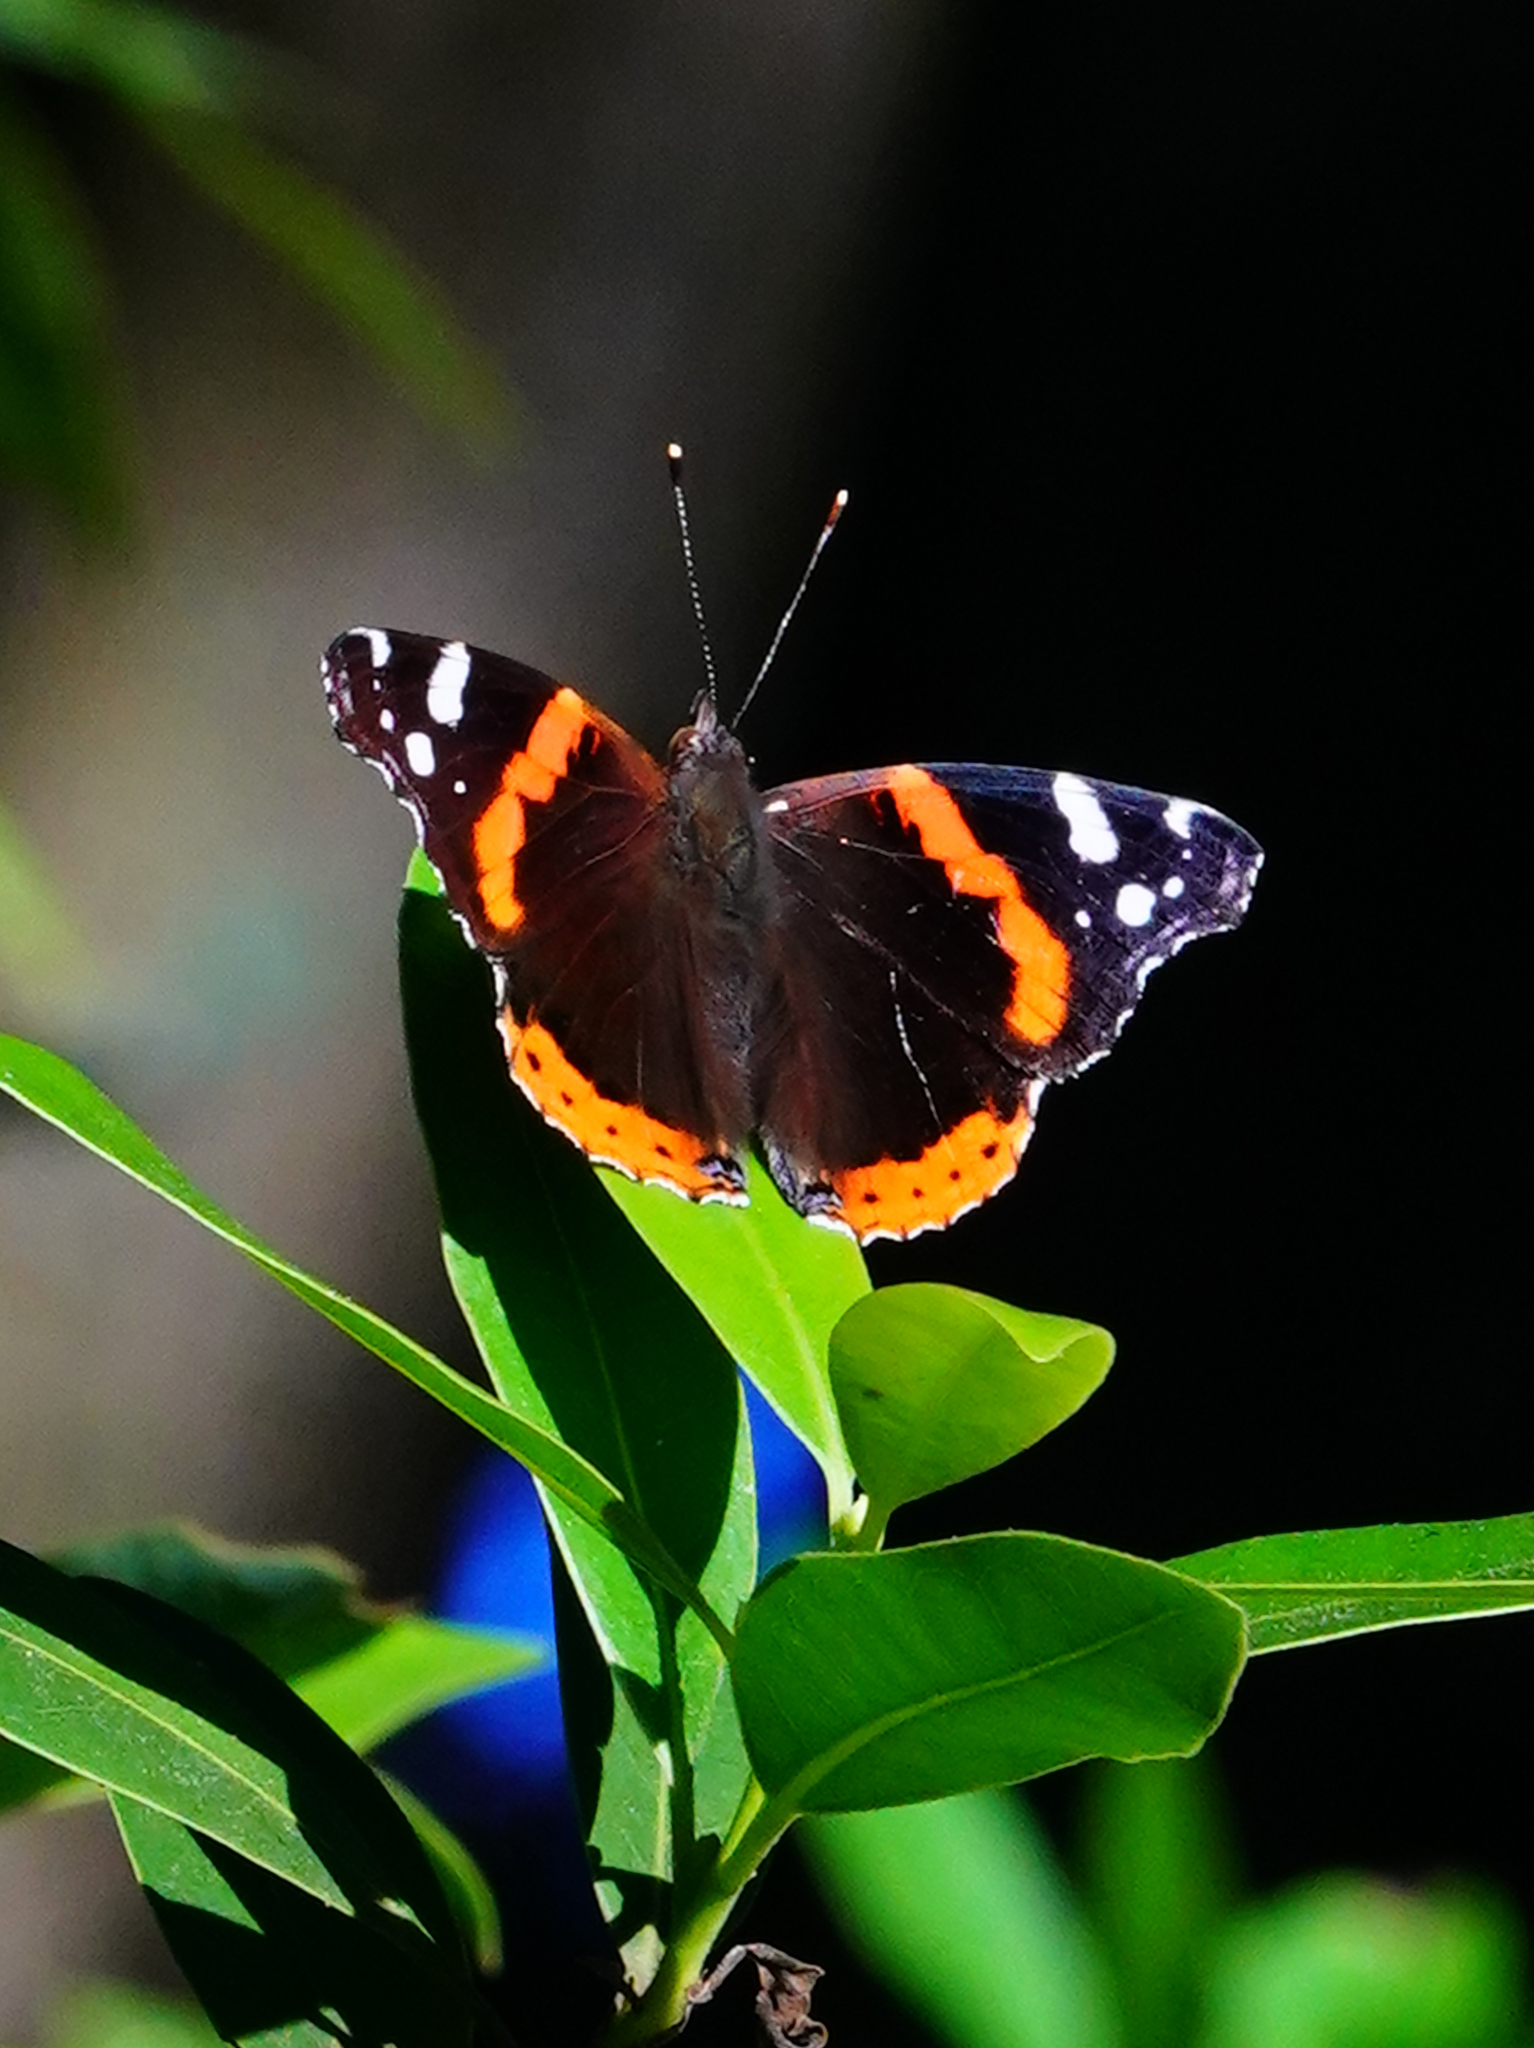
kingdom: Animalia
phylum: Arthropoda
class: Insecta
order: Lepidoptera
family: Nymphalidae
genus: Vanessa
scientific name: Vanessa atalanta
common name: Red admiral
